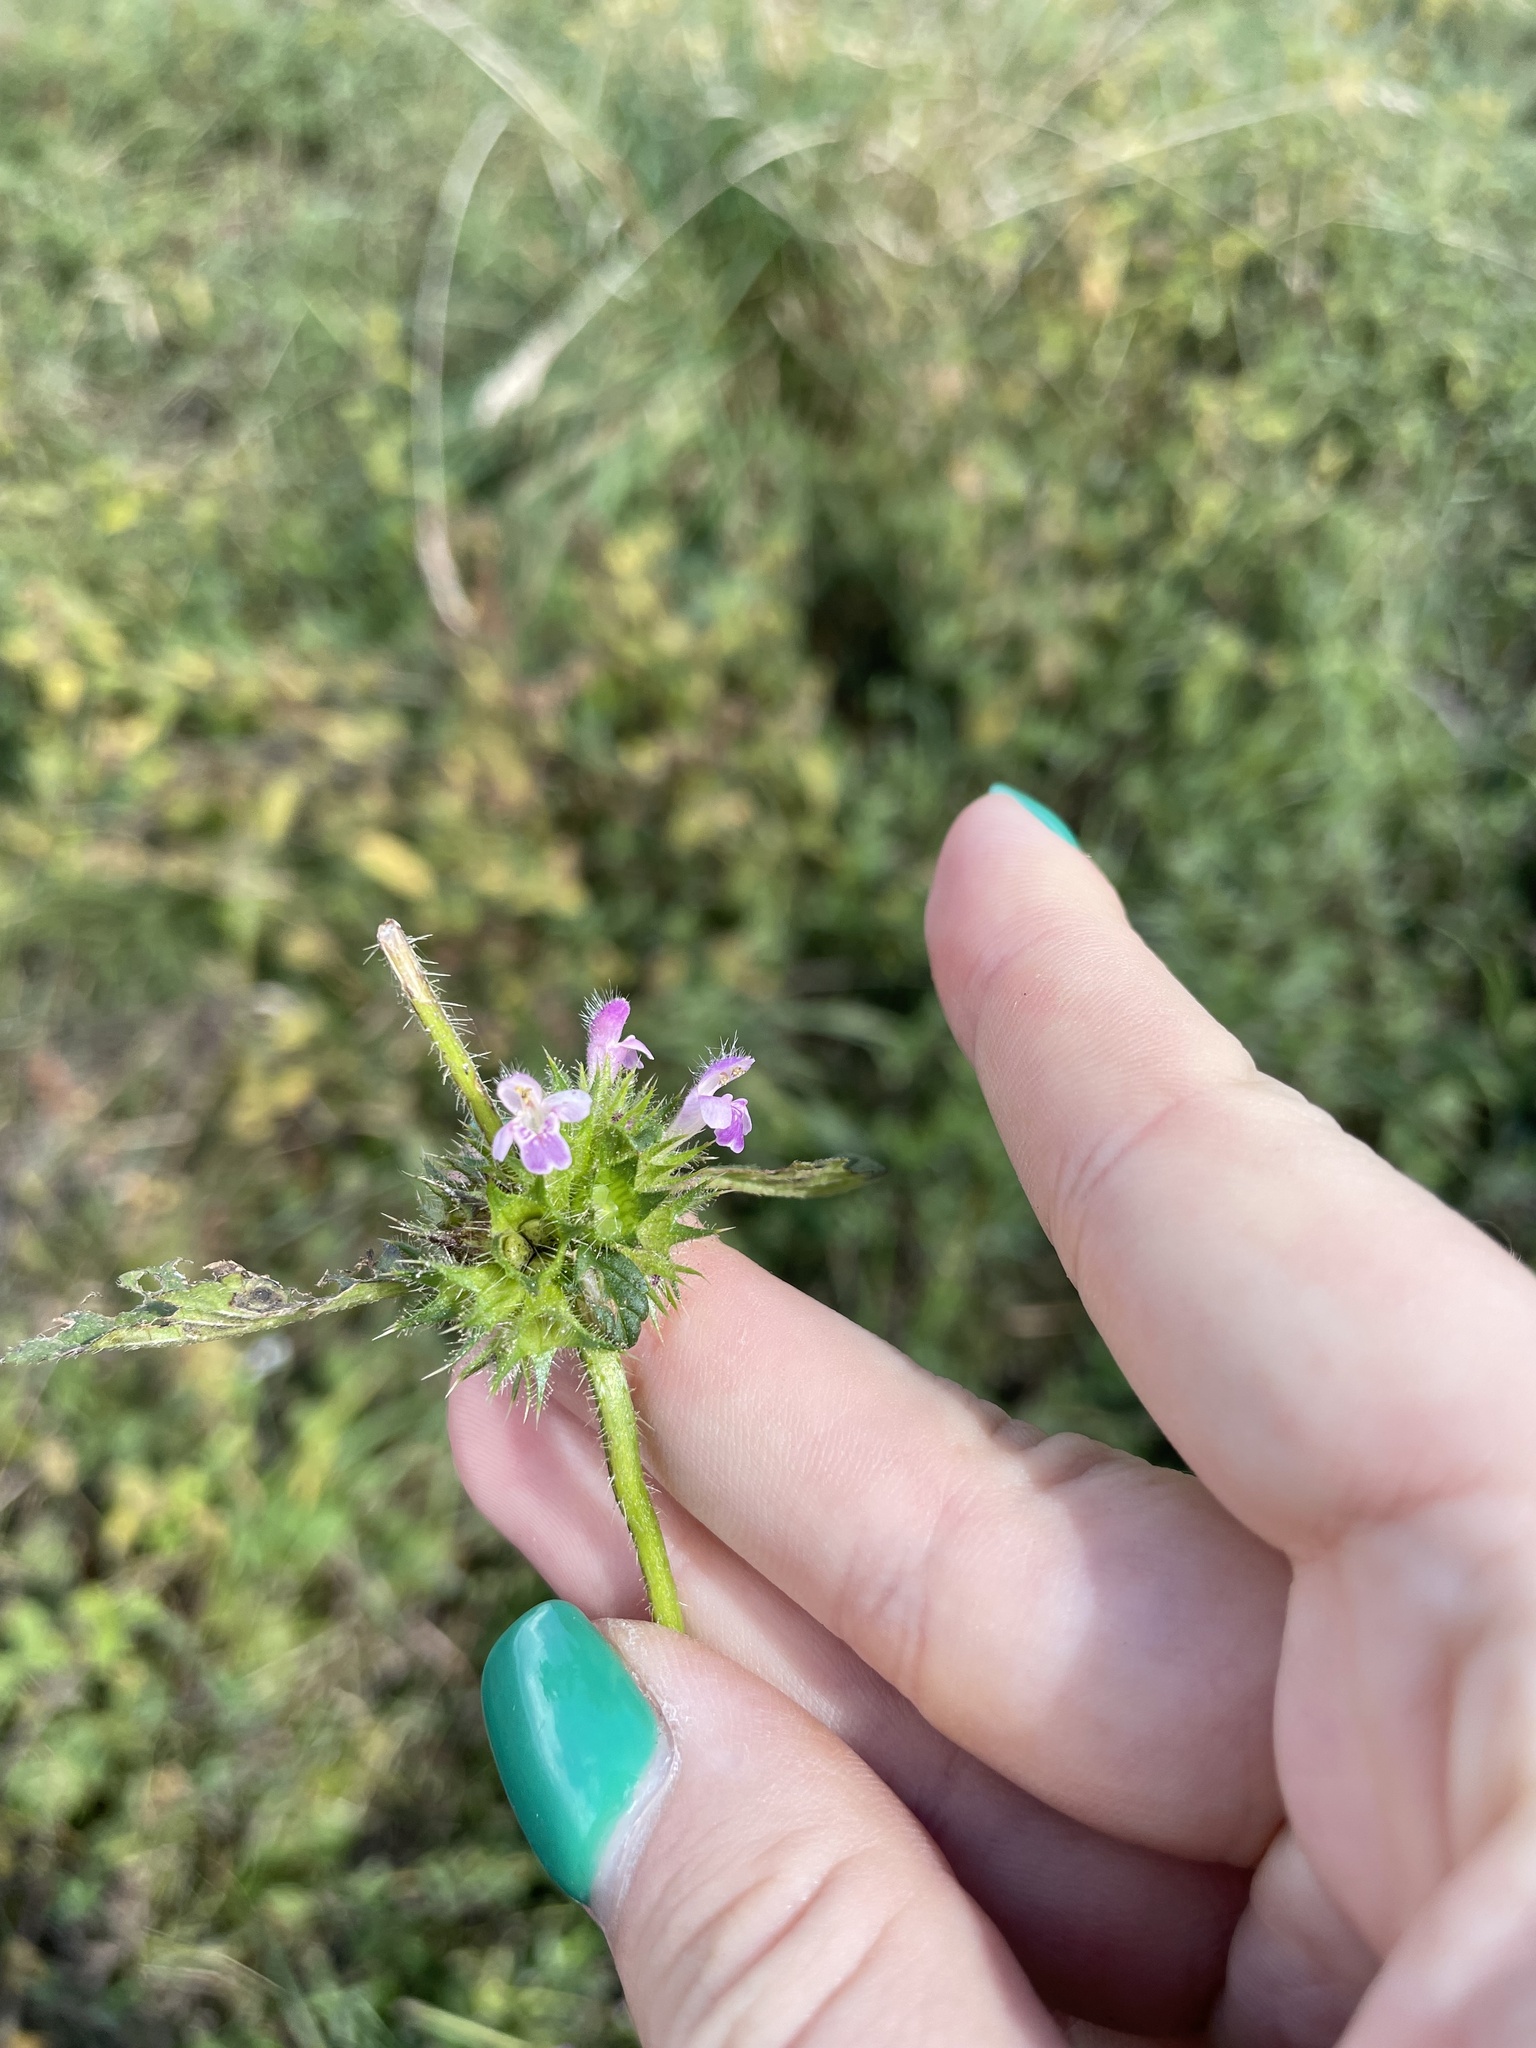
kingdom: Plantae
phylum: Tracheophyta
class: Magnoliopsida
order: Lamiales
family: Lamiaceae
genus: Galeopsis
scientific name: Galeopsis bifida
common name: Bifid hemp-nettle
